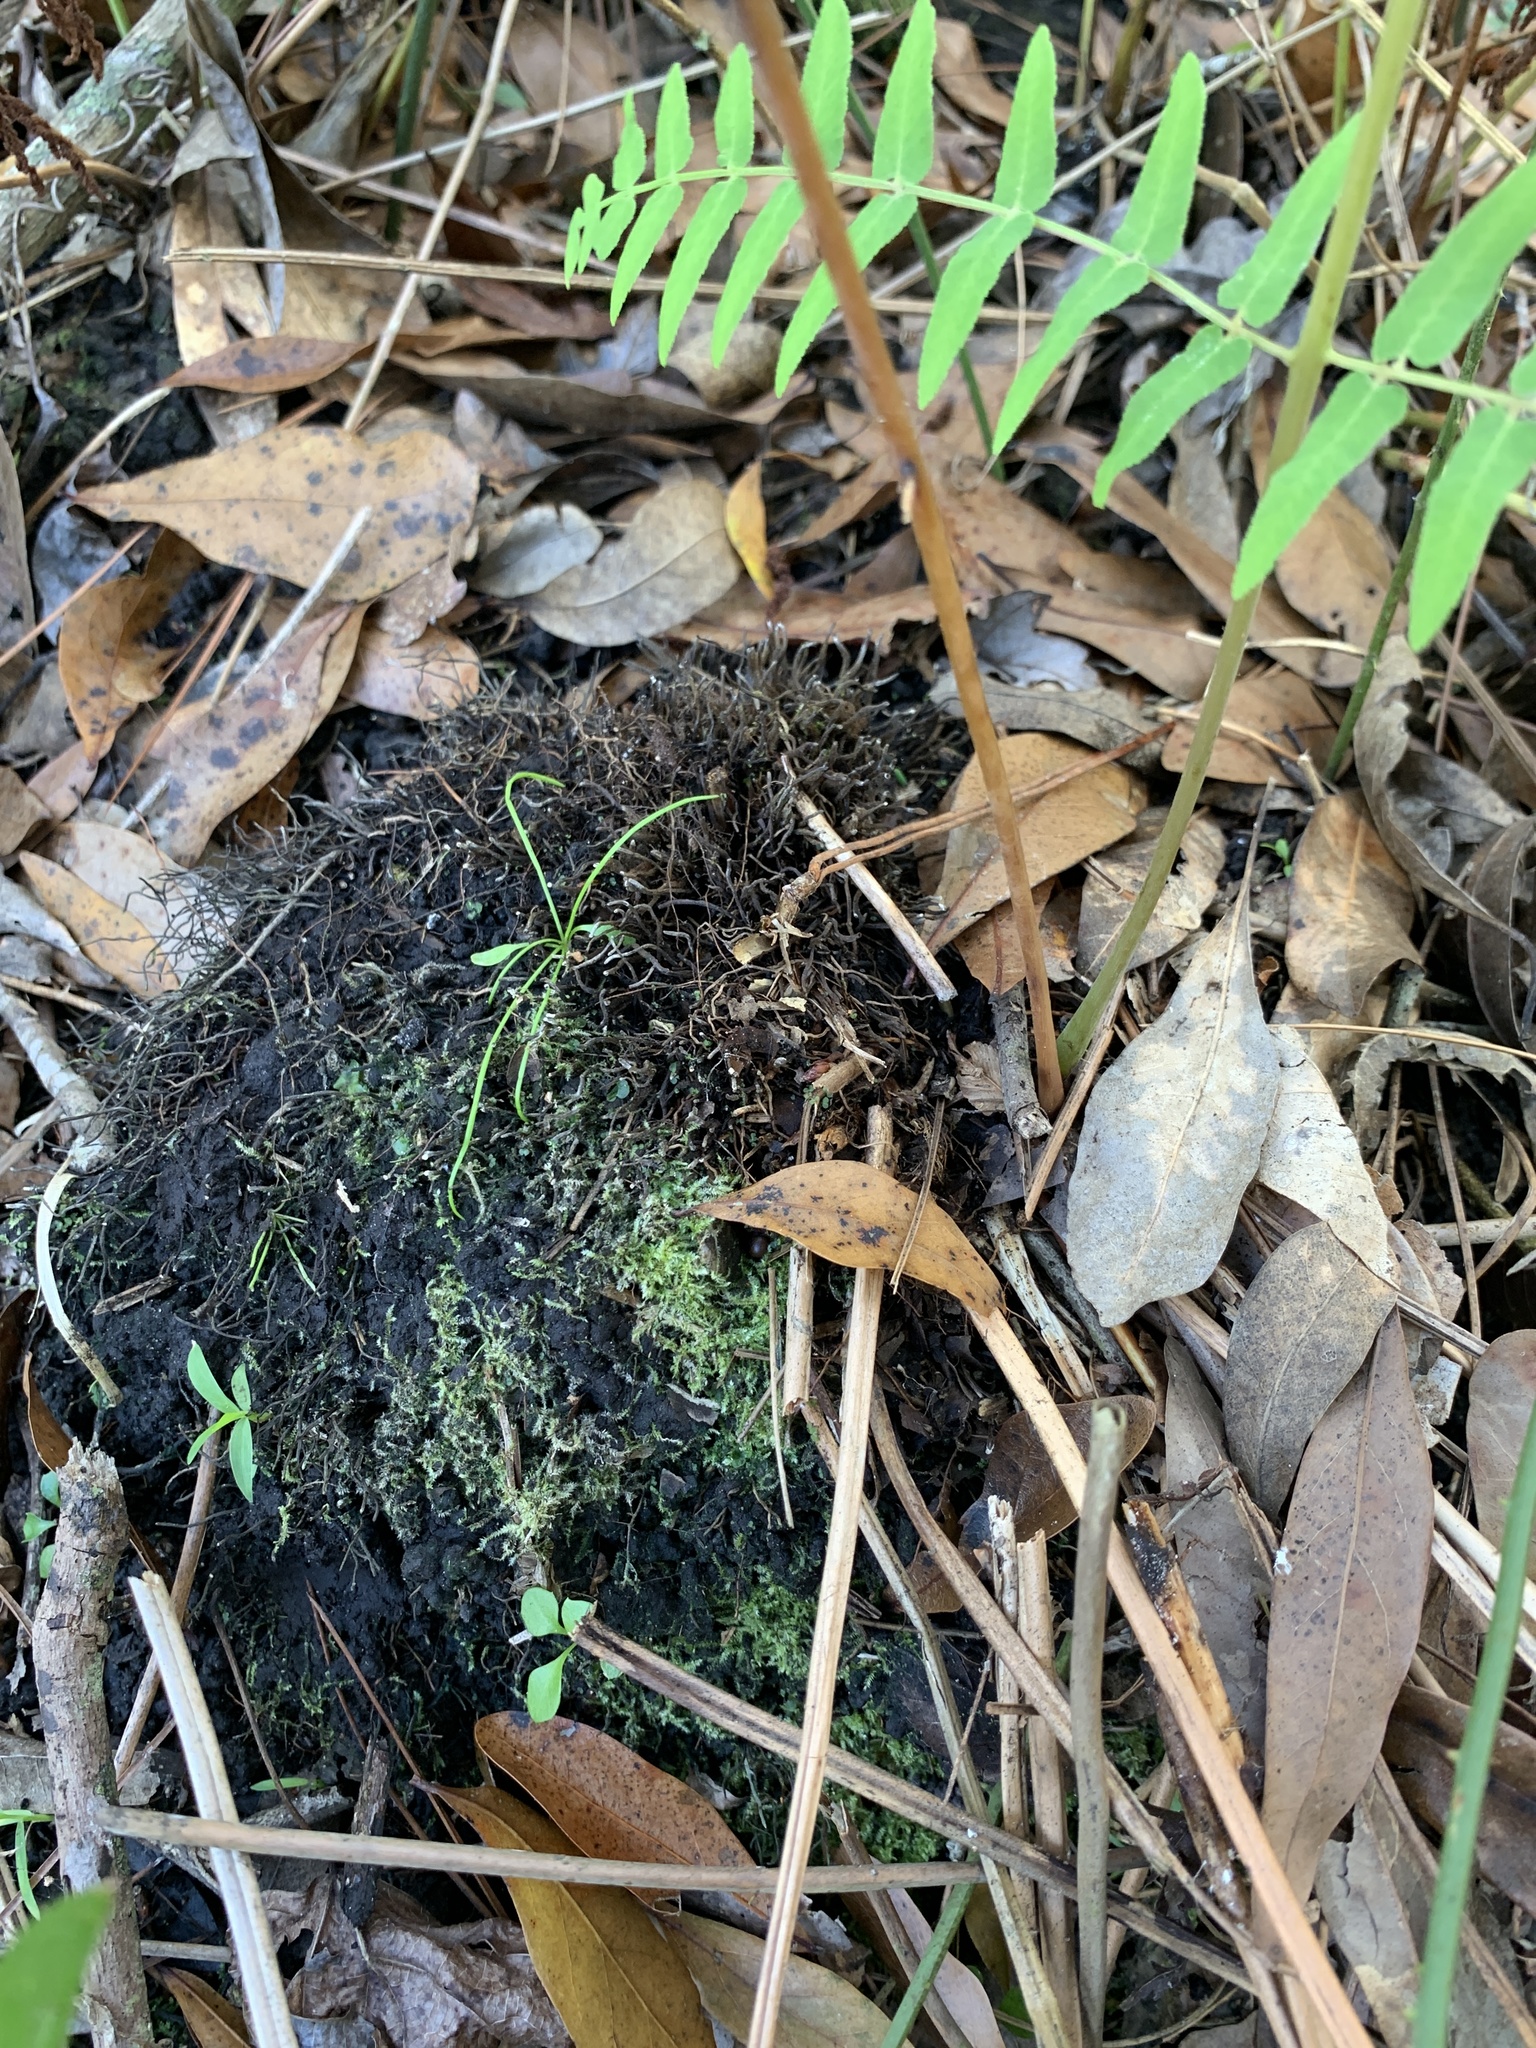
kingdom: Plantae
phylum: Tracheophyta
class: Polypodiopsida
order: Osmundales
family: Osmundaceae
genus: Osmunda
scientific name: Osmunda spectabilis
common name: American royal fern
